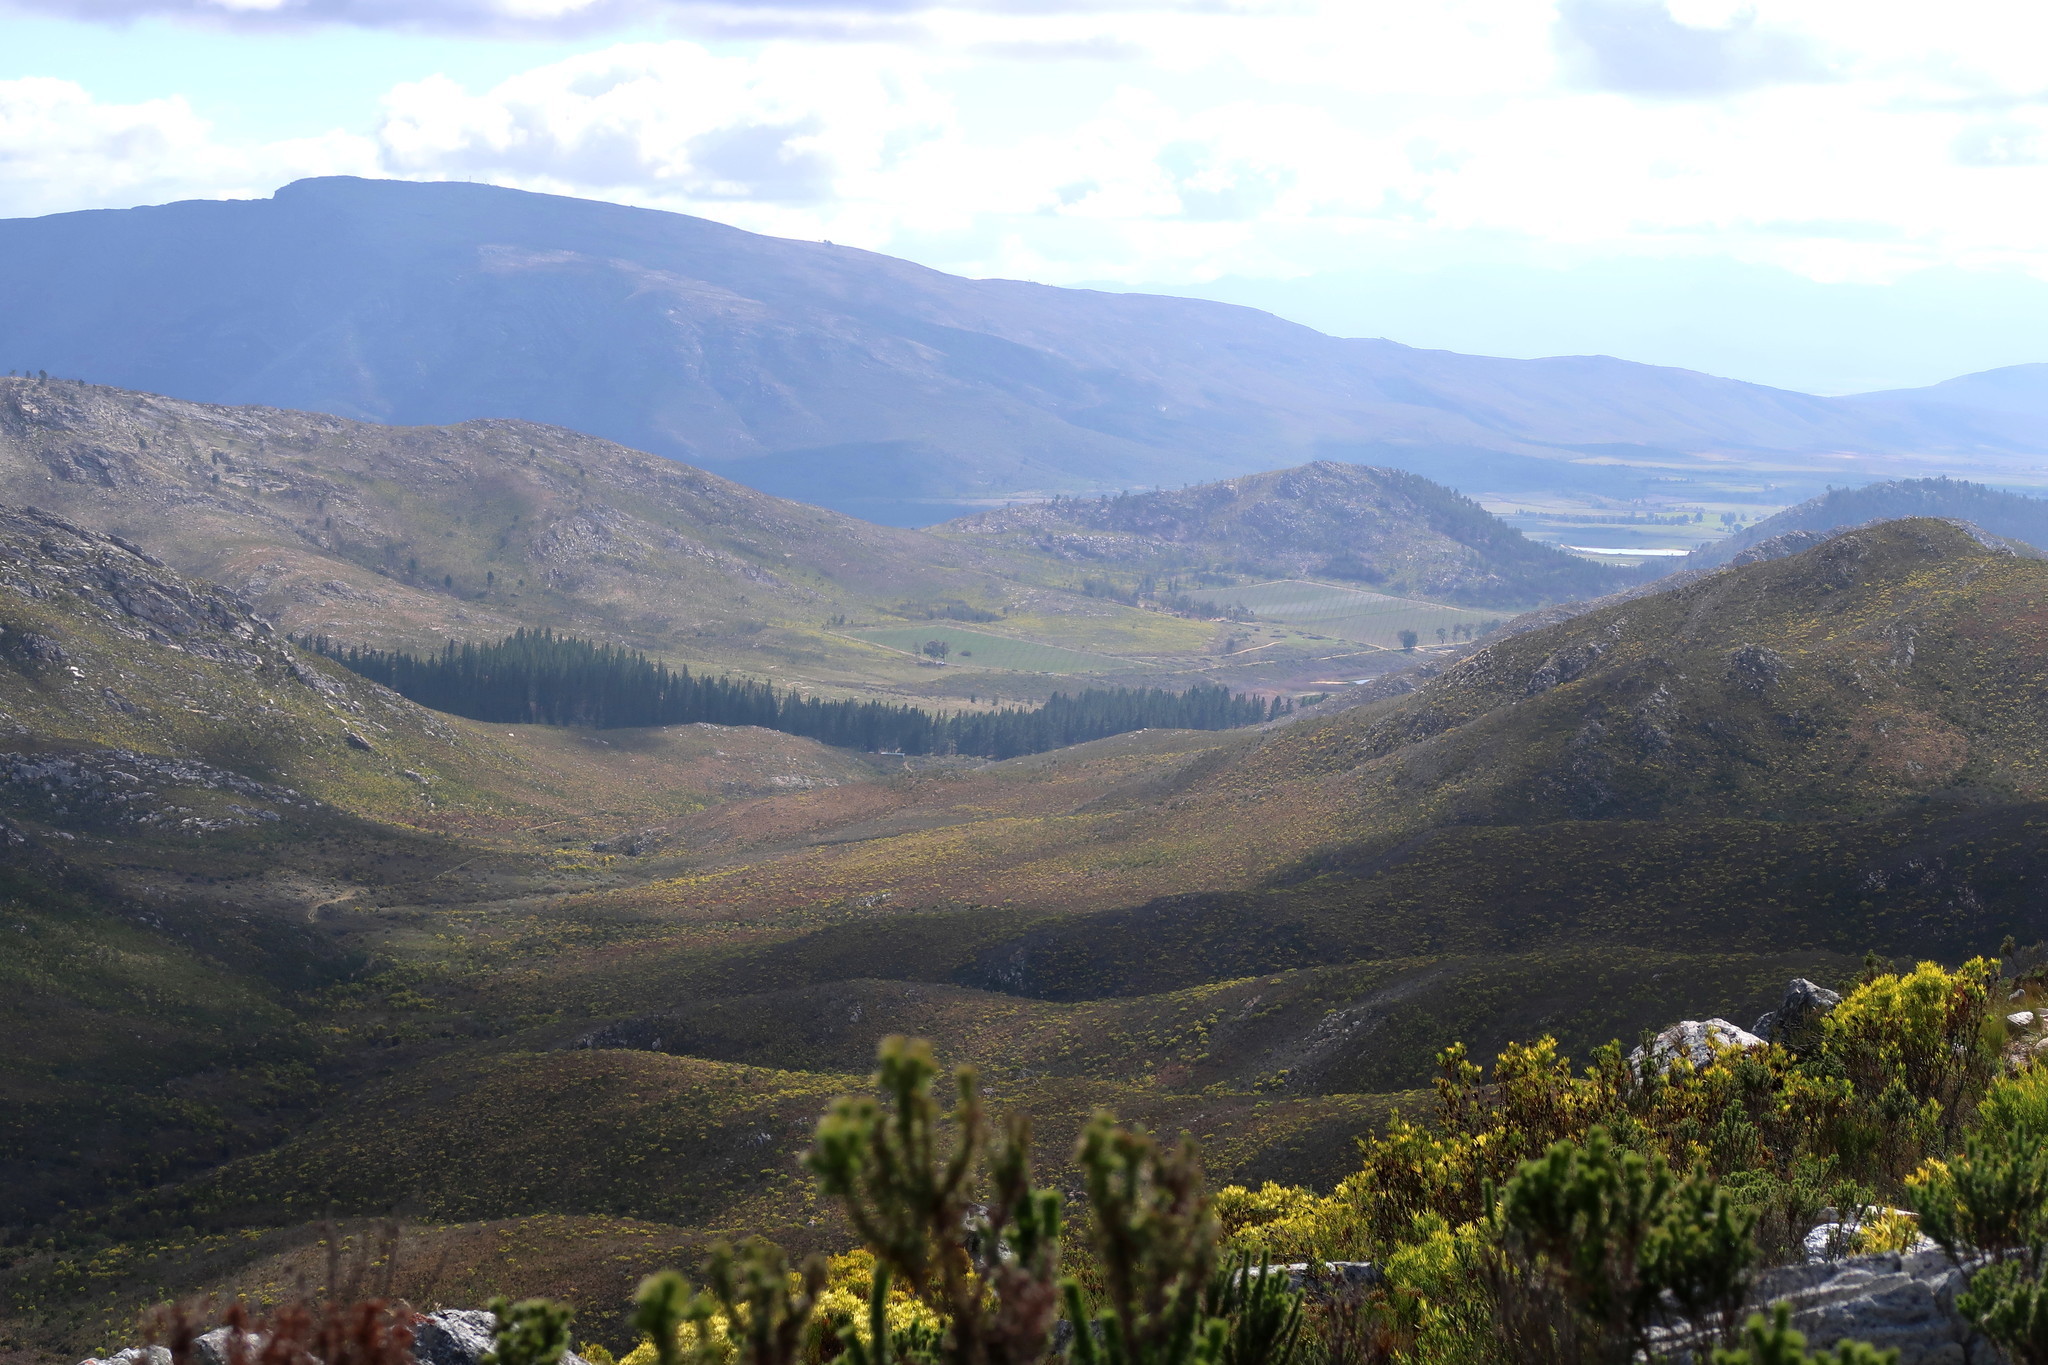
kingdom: Plantae
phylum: Tracheophyta
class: Magnoliopsida
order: Proteales
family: Proteaceae
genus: Leucadendron
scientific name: Leucadendron salignum
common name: Common sunshine conebush
